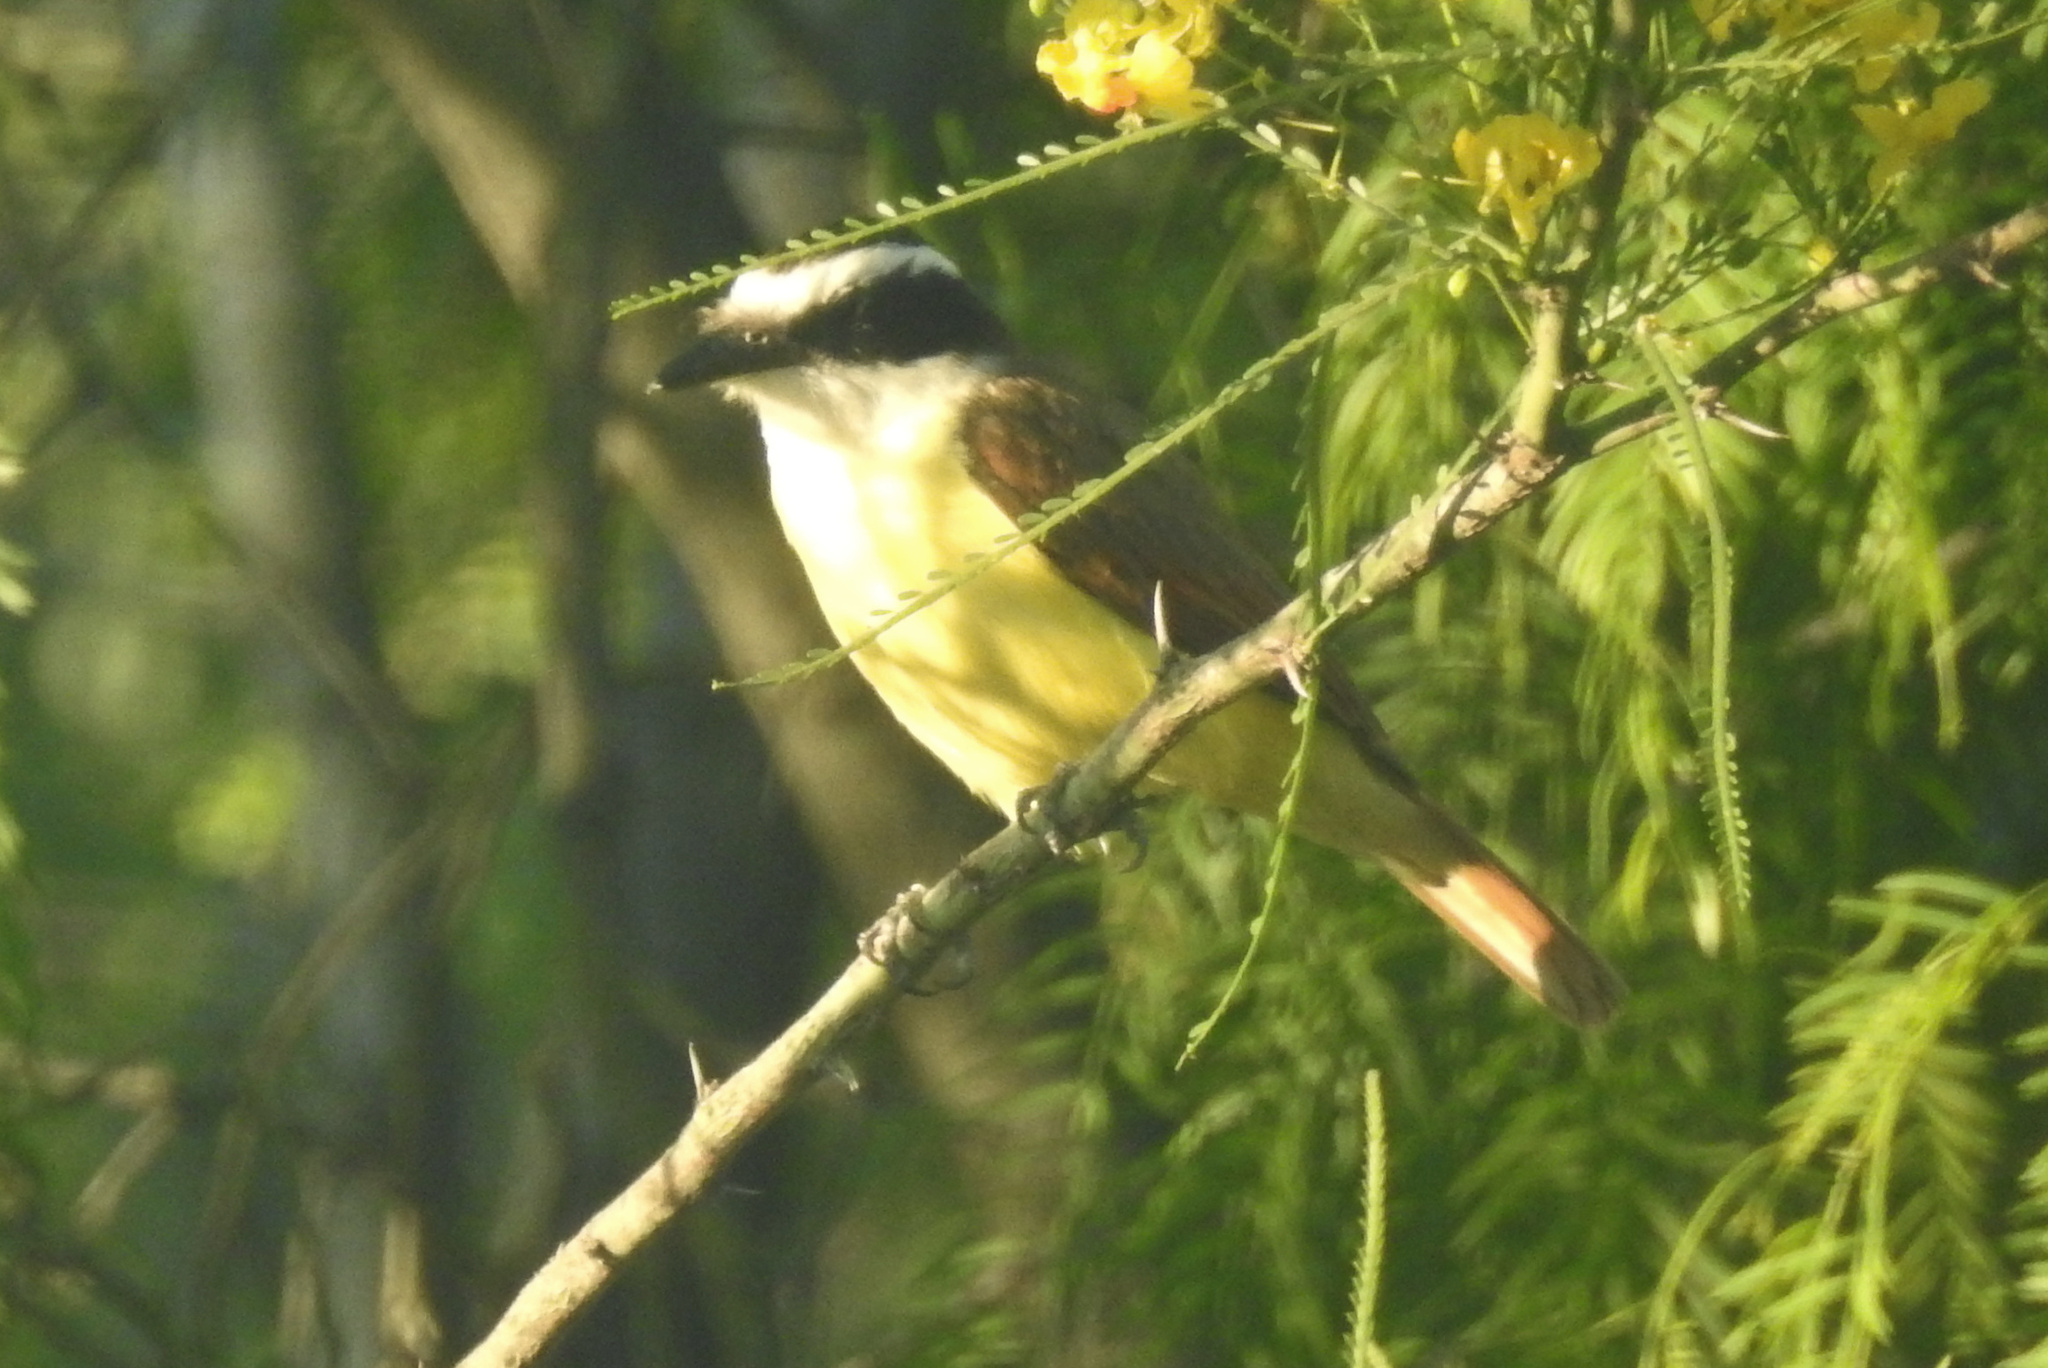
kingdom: Animalia
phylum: Chordata
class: Aves
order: Passeriformes
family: Tyrannidae
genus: Pitangus
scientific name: Pitangus sulphuratus
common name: Great kiskadee
